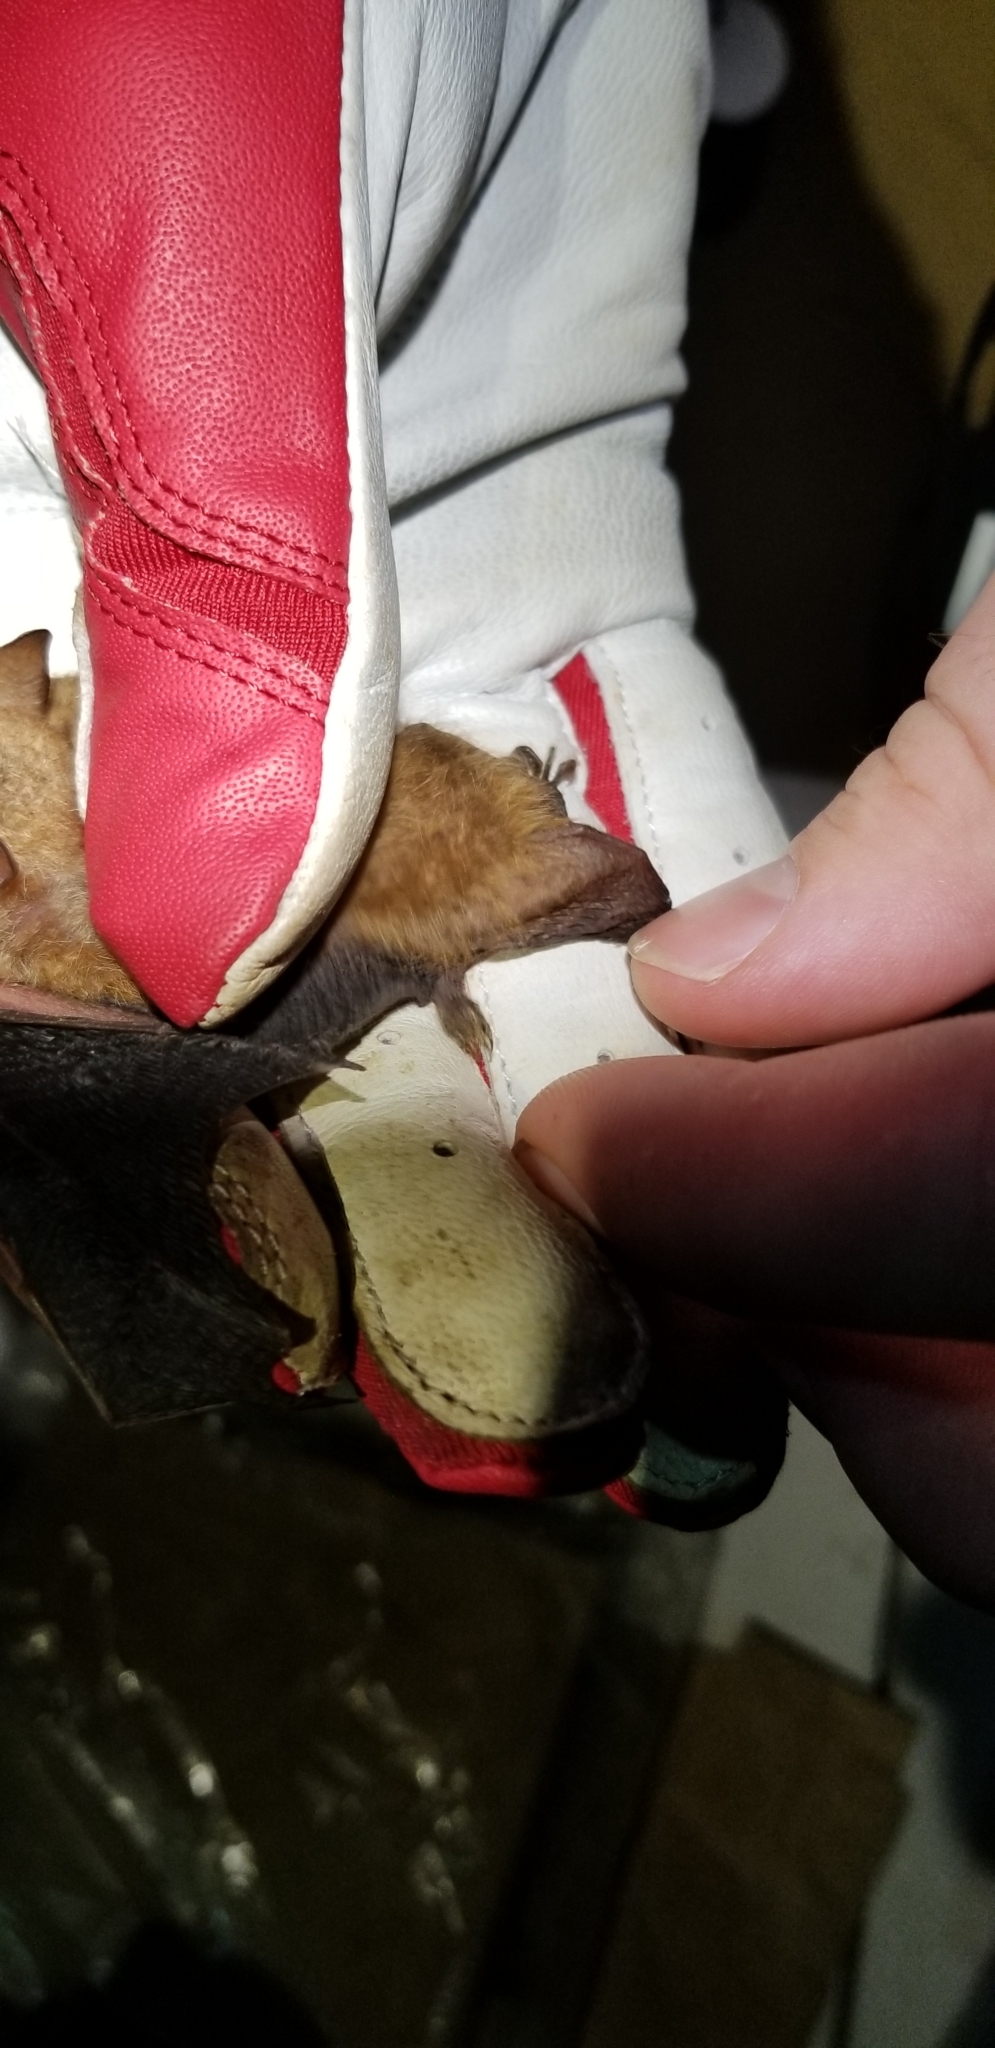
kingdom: Animalia
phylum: Chordata
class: Mammalia
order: Chiroptera
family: Vespertilionidae
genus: Perimyotis
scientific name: Perimyotis subflavus
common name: Eastern pipistrelle
